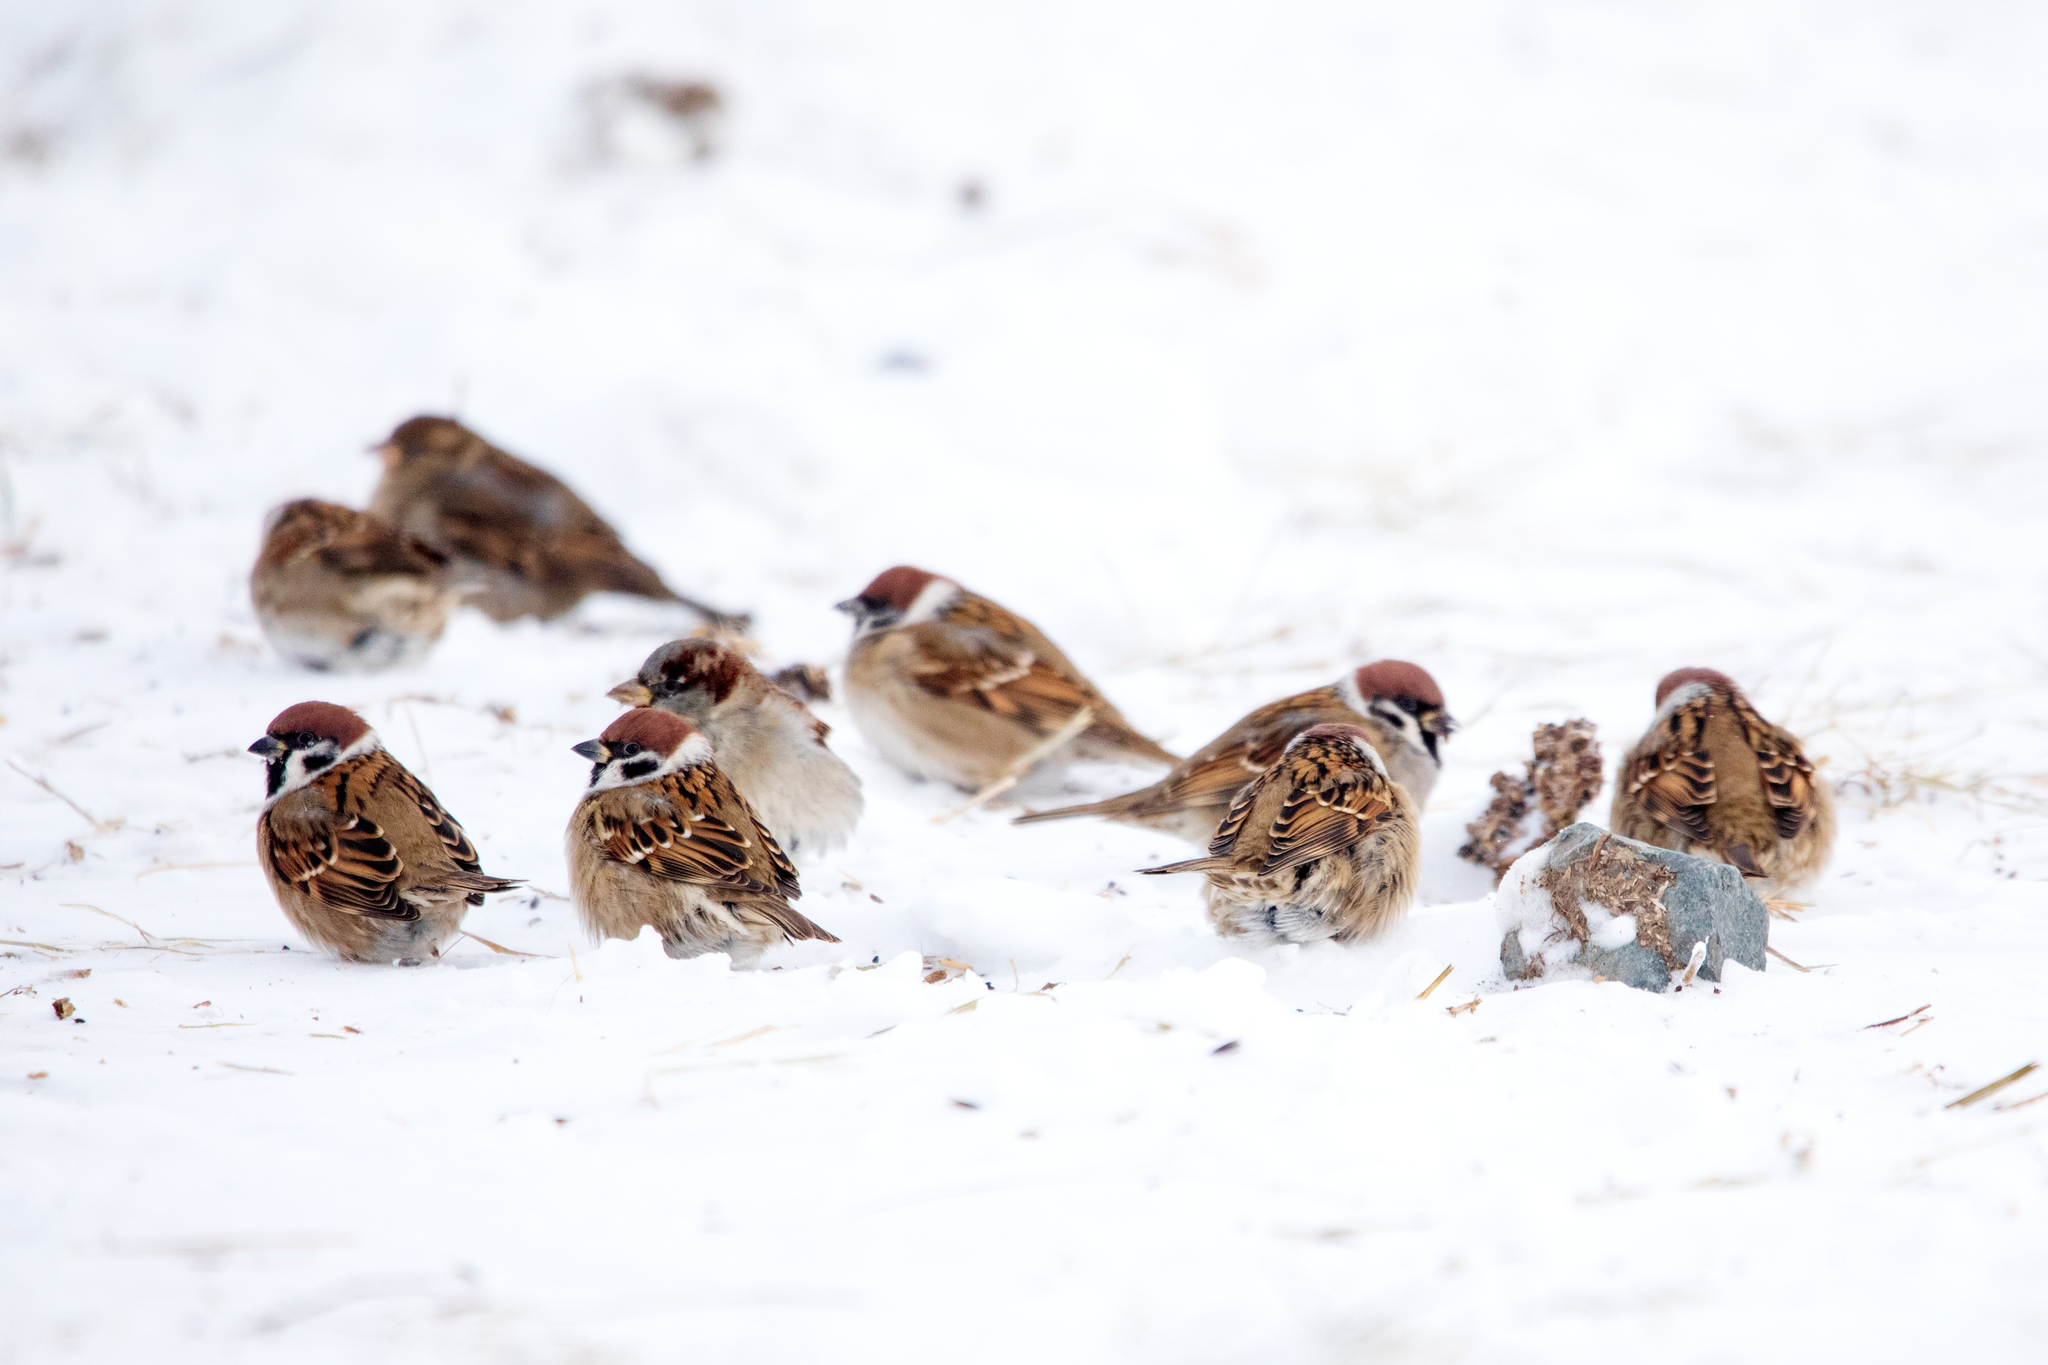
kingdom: Animalia
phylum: Chordata
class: Aves
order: Passeriformes
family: Passeridae
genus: Passer
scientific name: Passer montanus
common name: Eurasian tree sparrow
